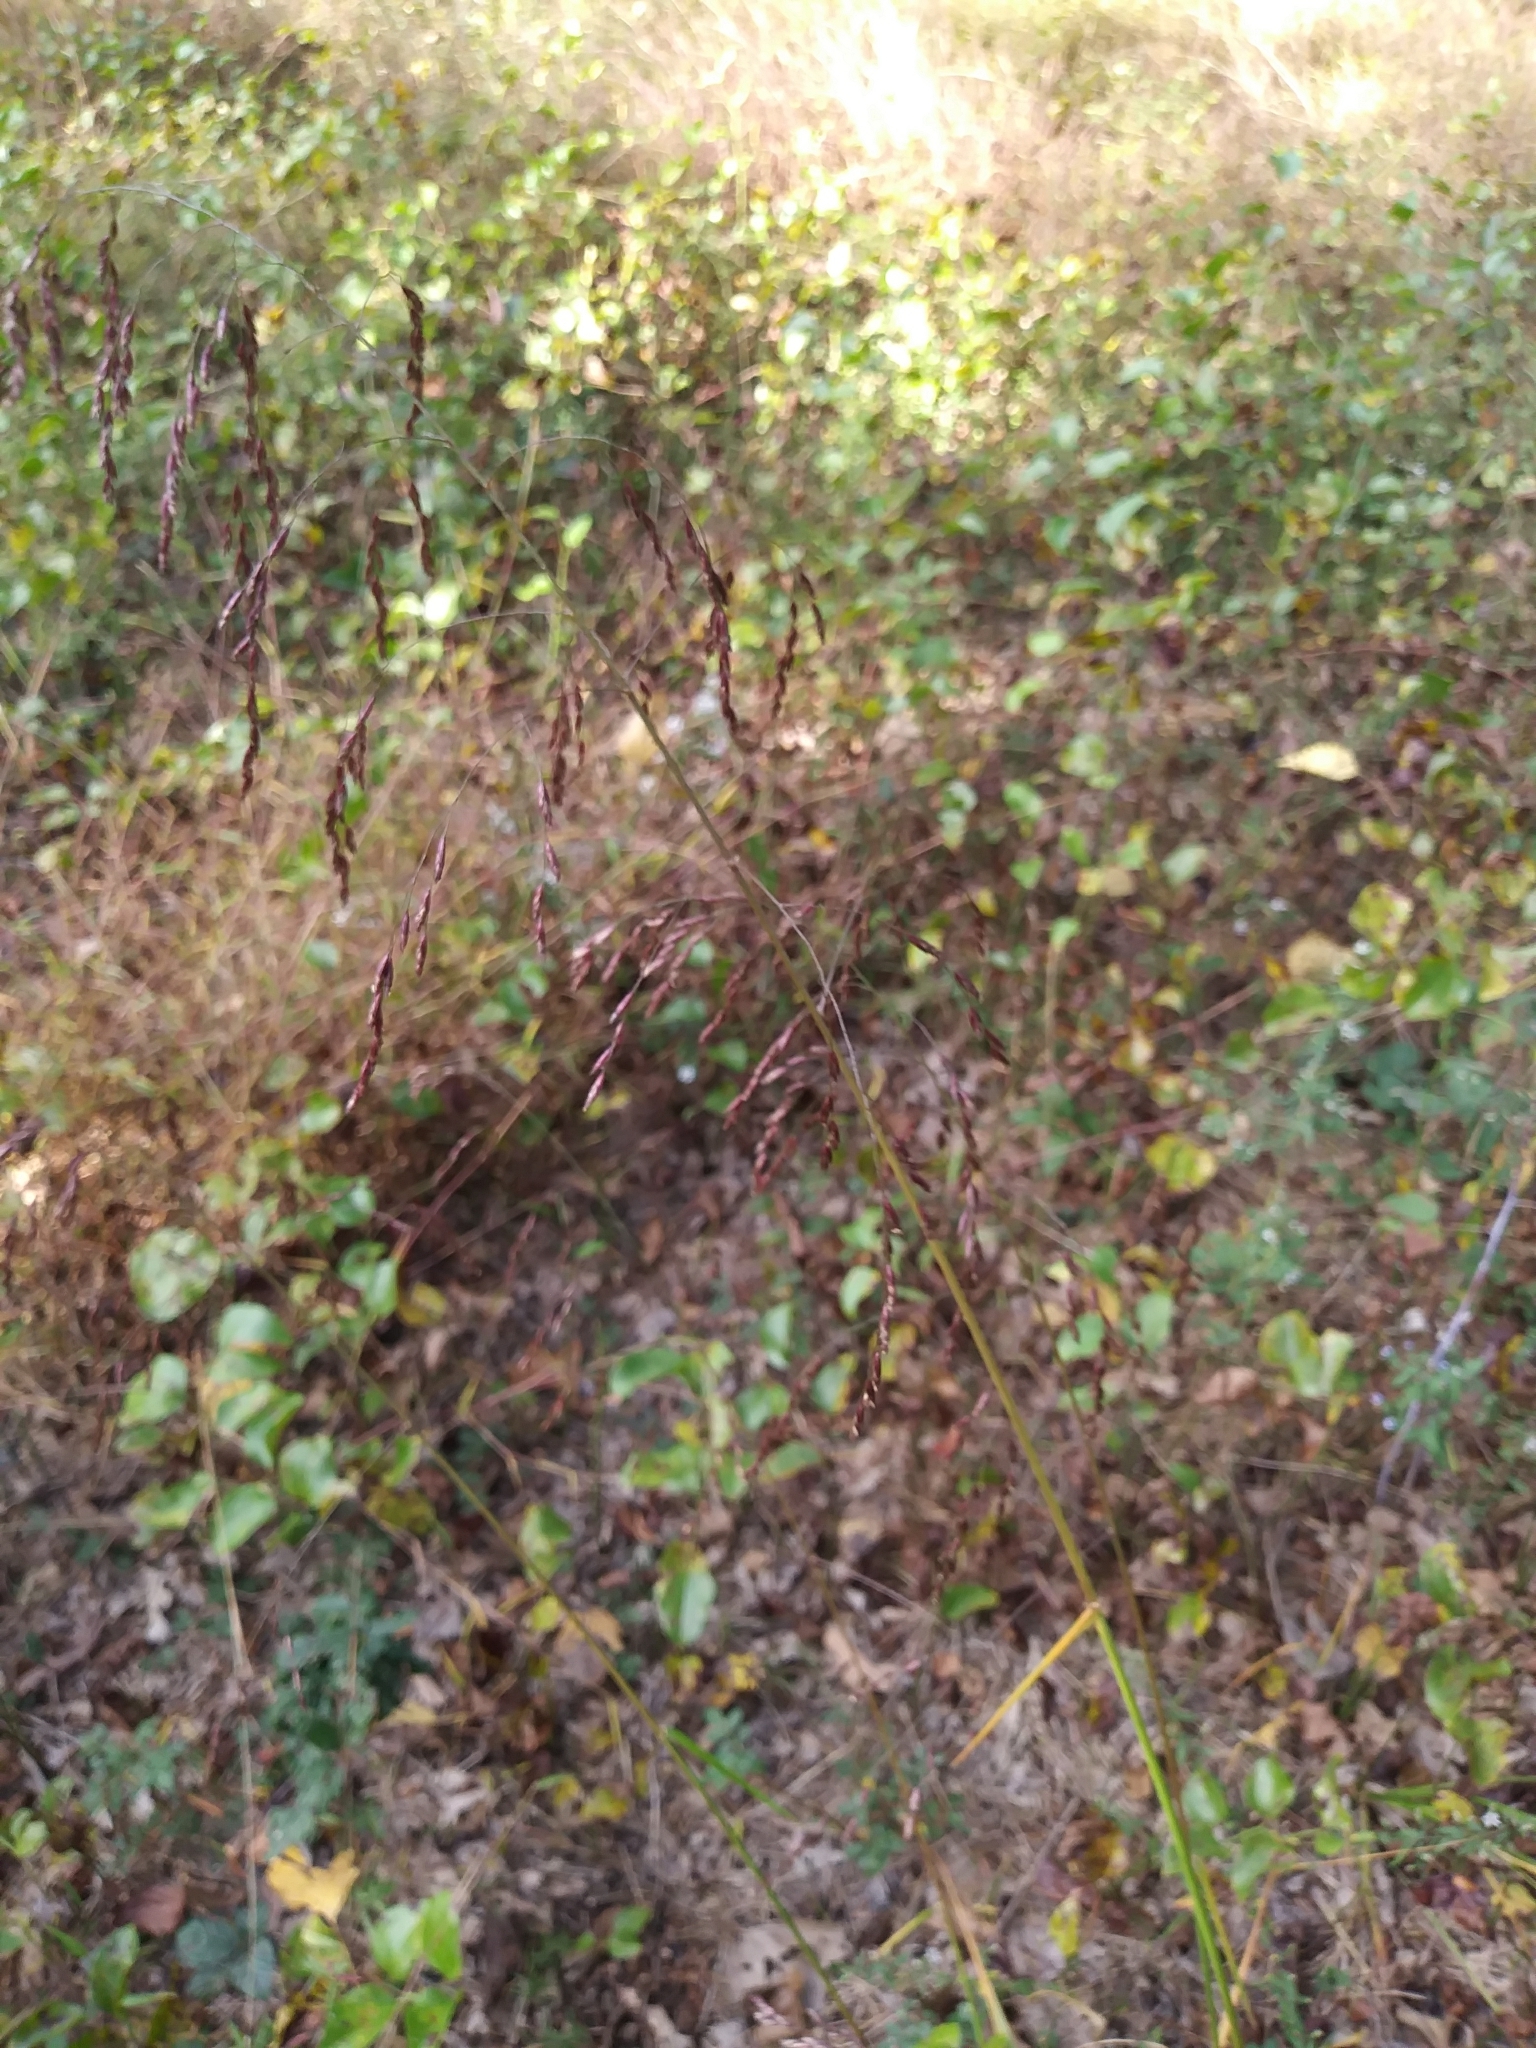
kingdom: Plantae
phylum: Tracheophyta
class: Liliopsida
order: Poales
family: Poaceae
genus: Tridens
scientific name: Tridens flavus
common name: Purpletop
